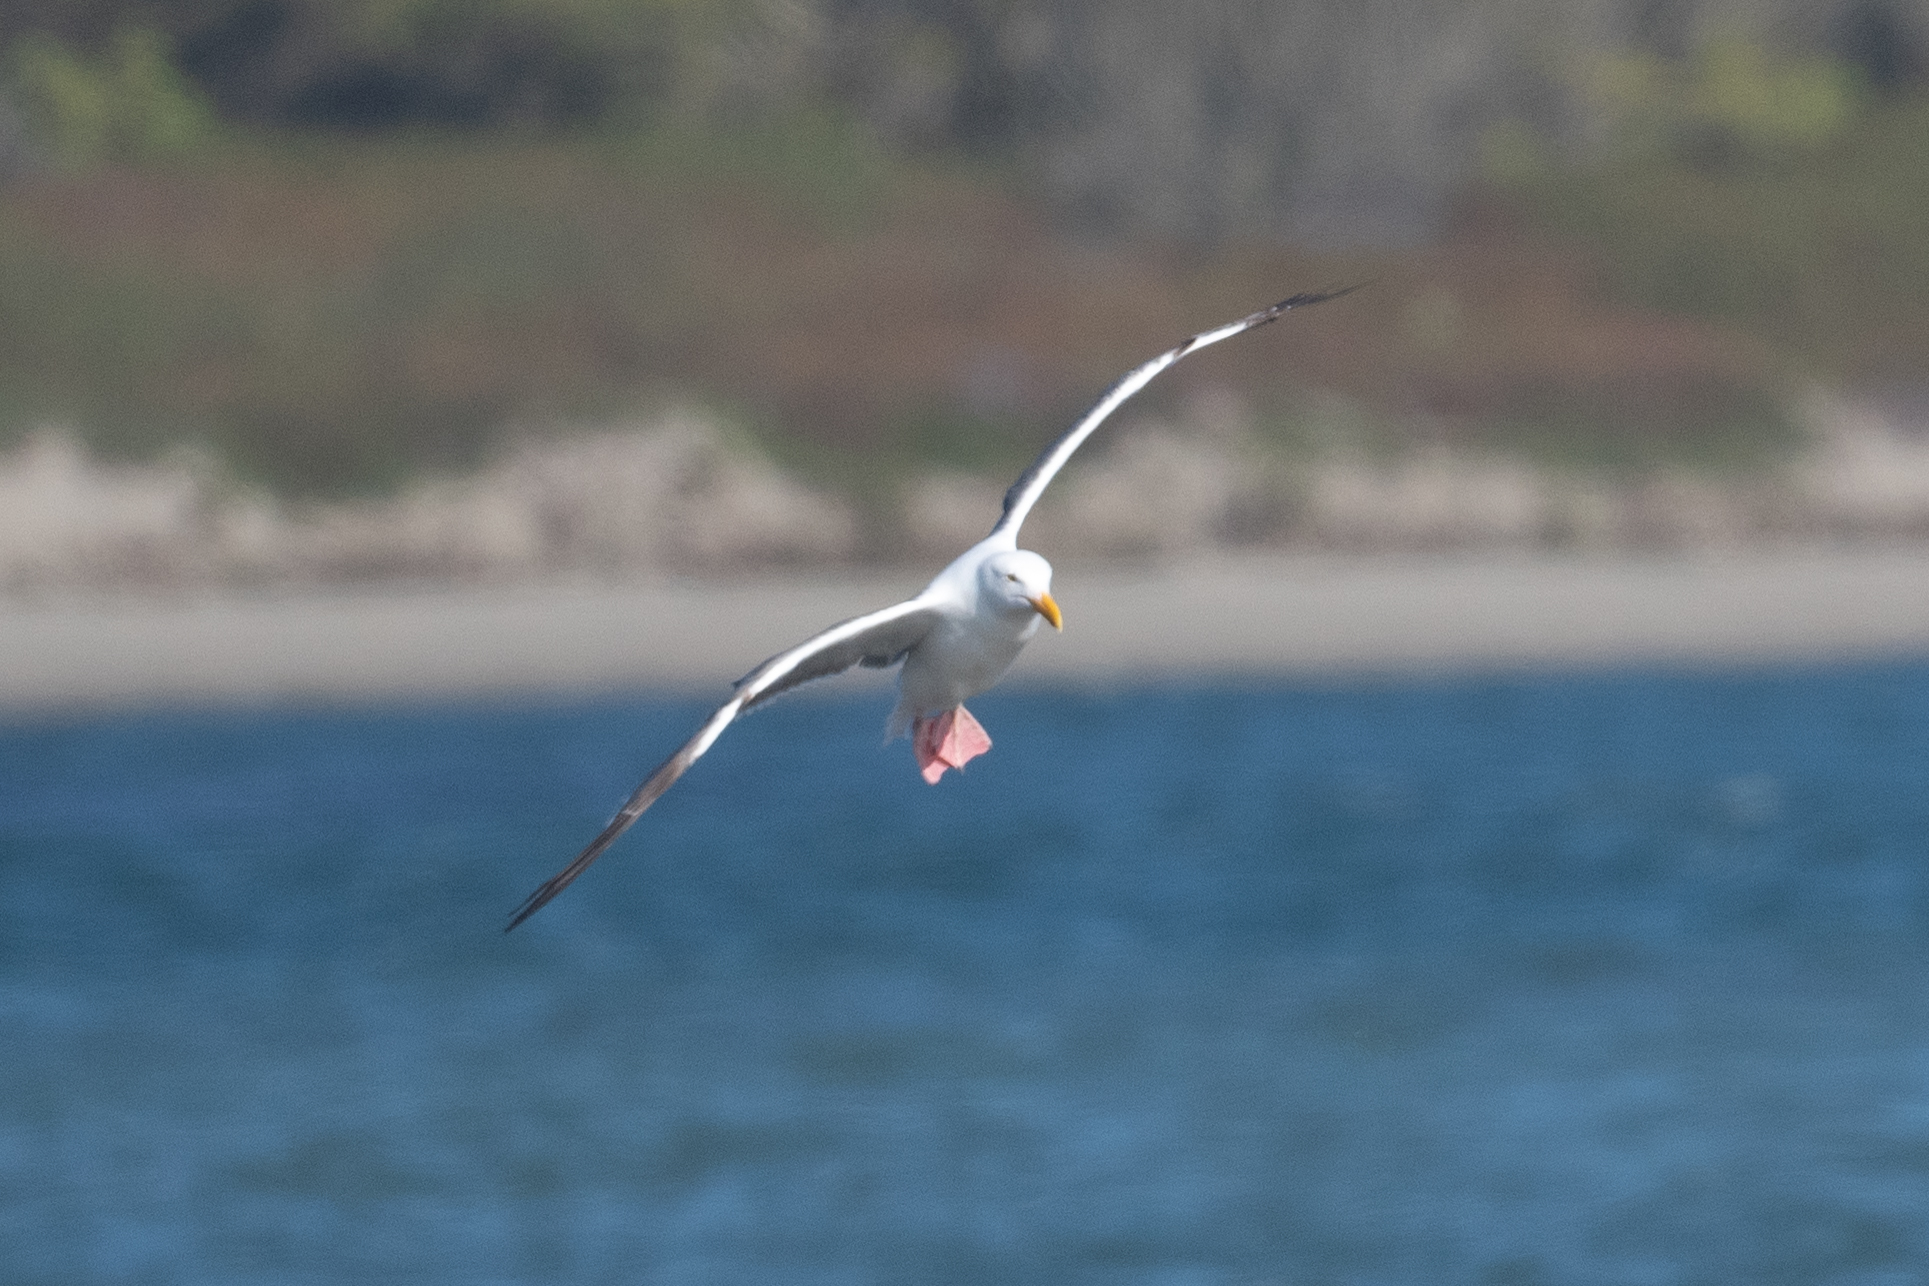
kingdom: Animalia
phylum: Chordata
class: Aves
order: Charadriiformes
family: Laridae
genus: Larus
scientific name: Larus occidentalis
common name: Western gull
